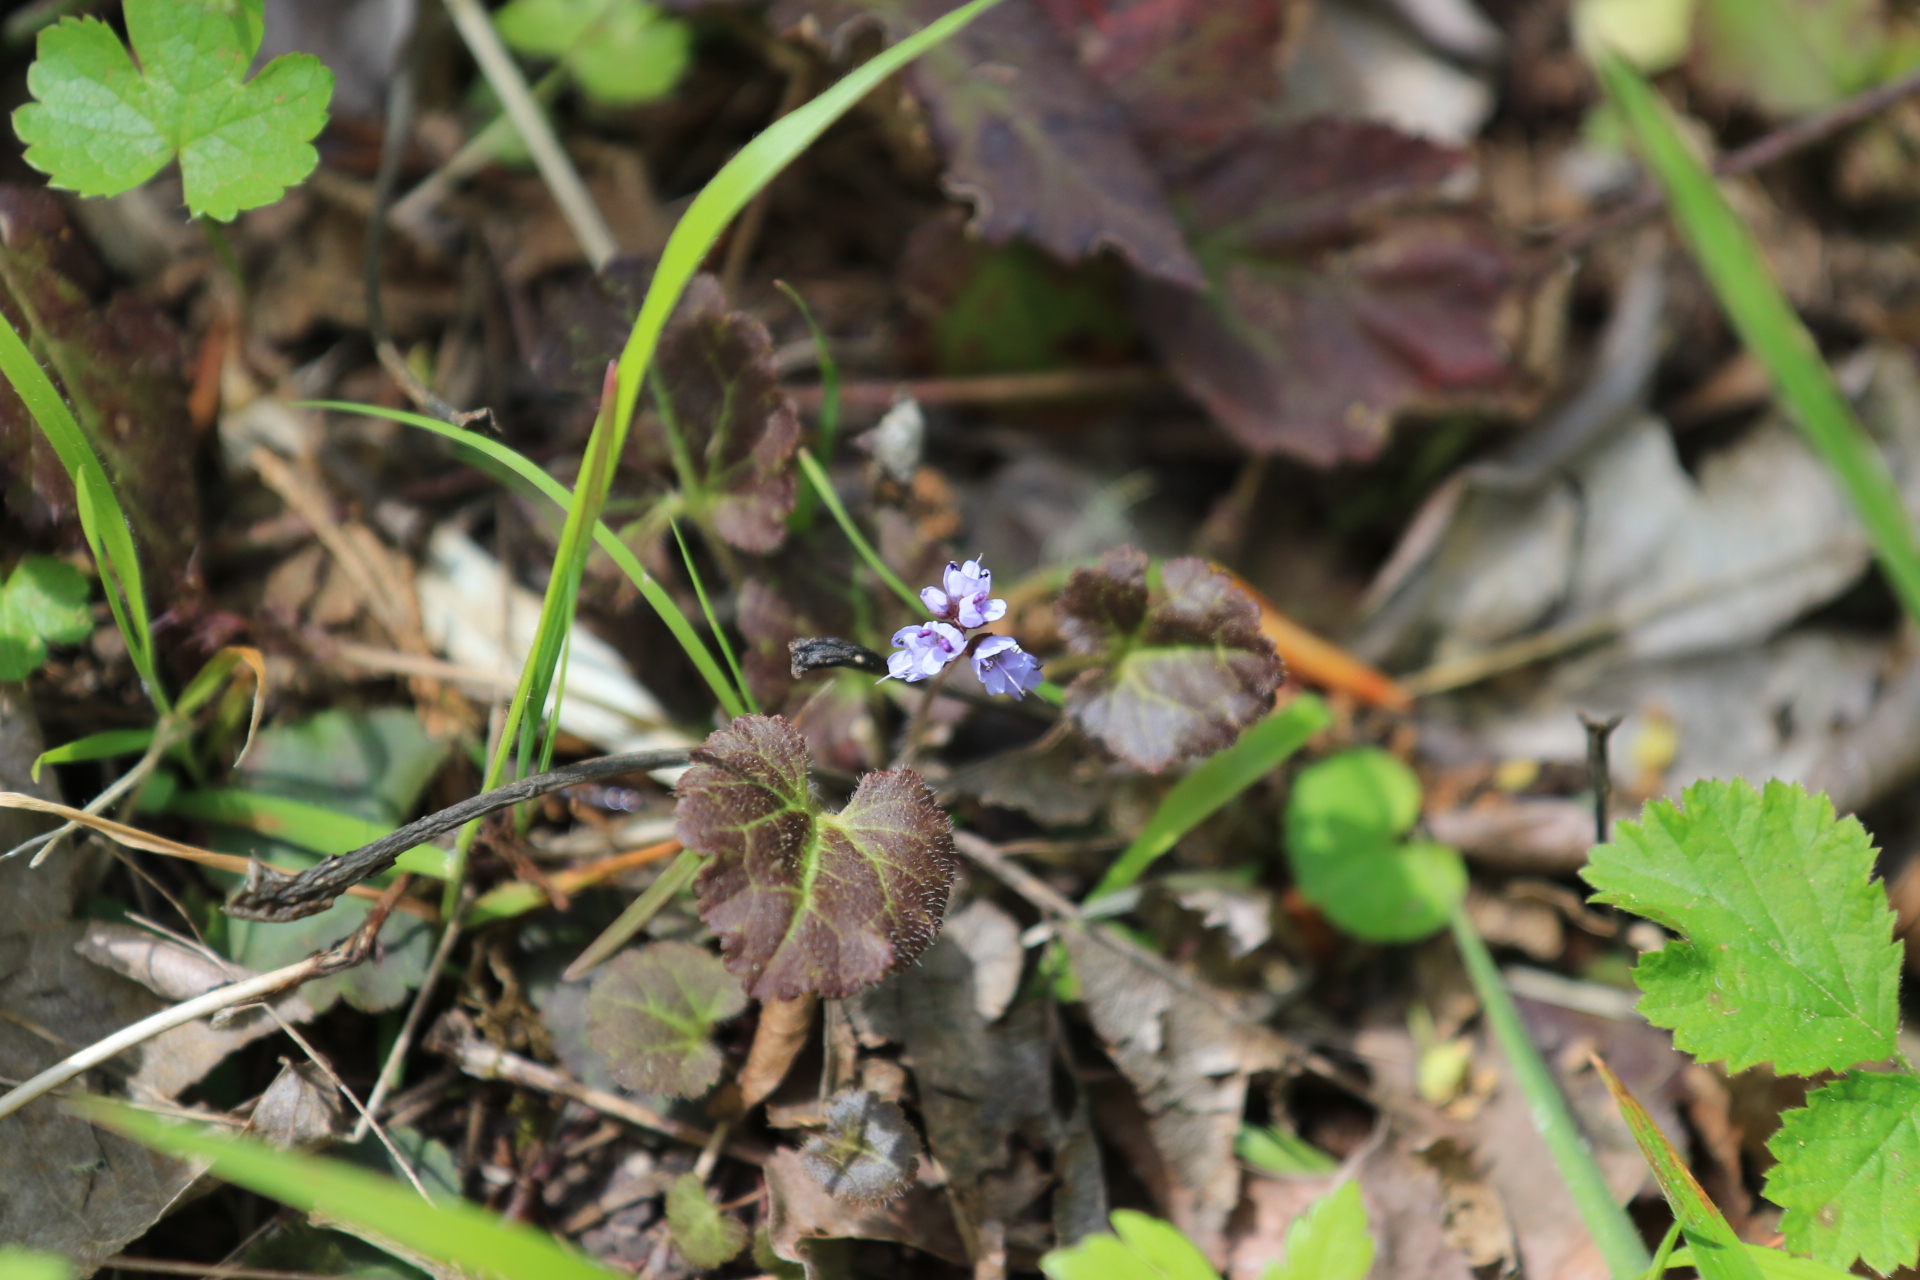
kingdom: Plantae
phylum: Tracheophyta
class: Magnoliopsida
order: Lamiales
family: Plantaginaceae
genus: Synthyris
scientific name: Synthyris reniformis
